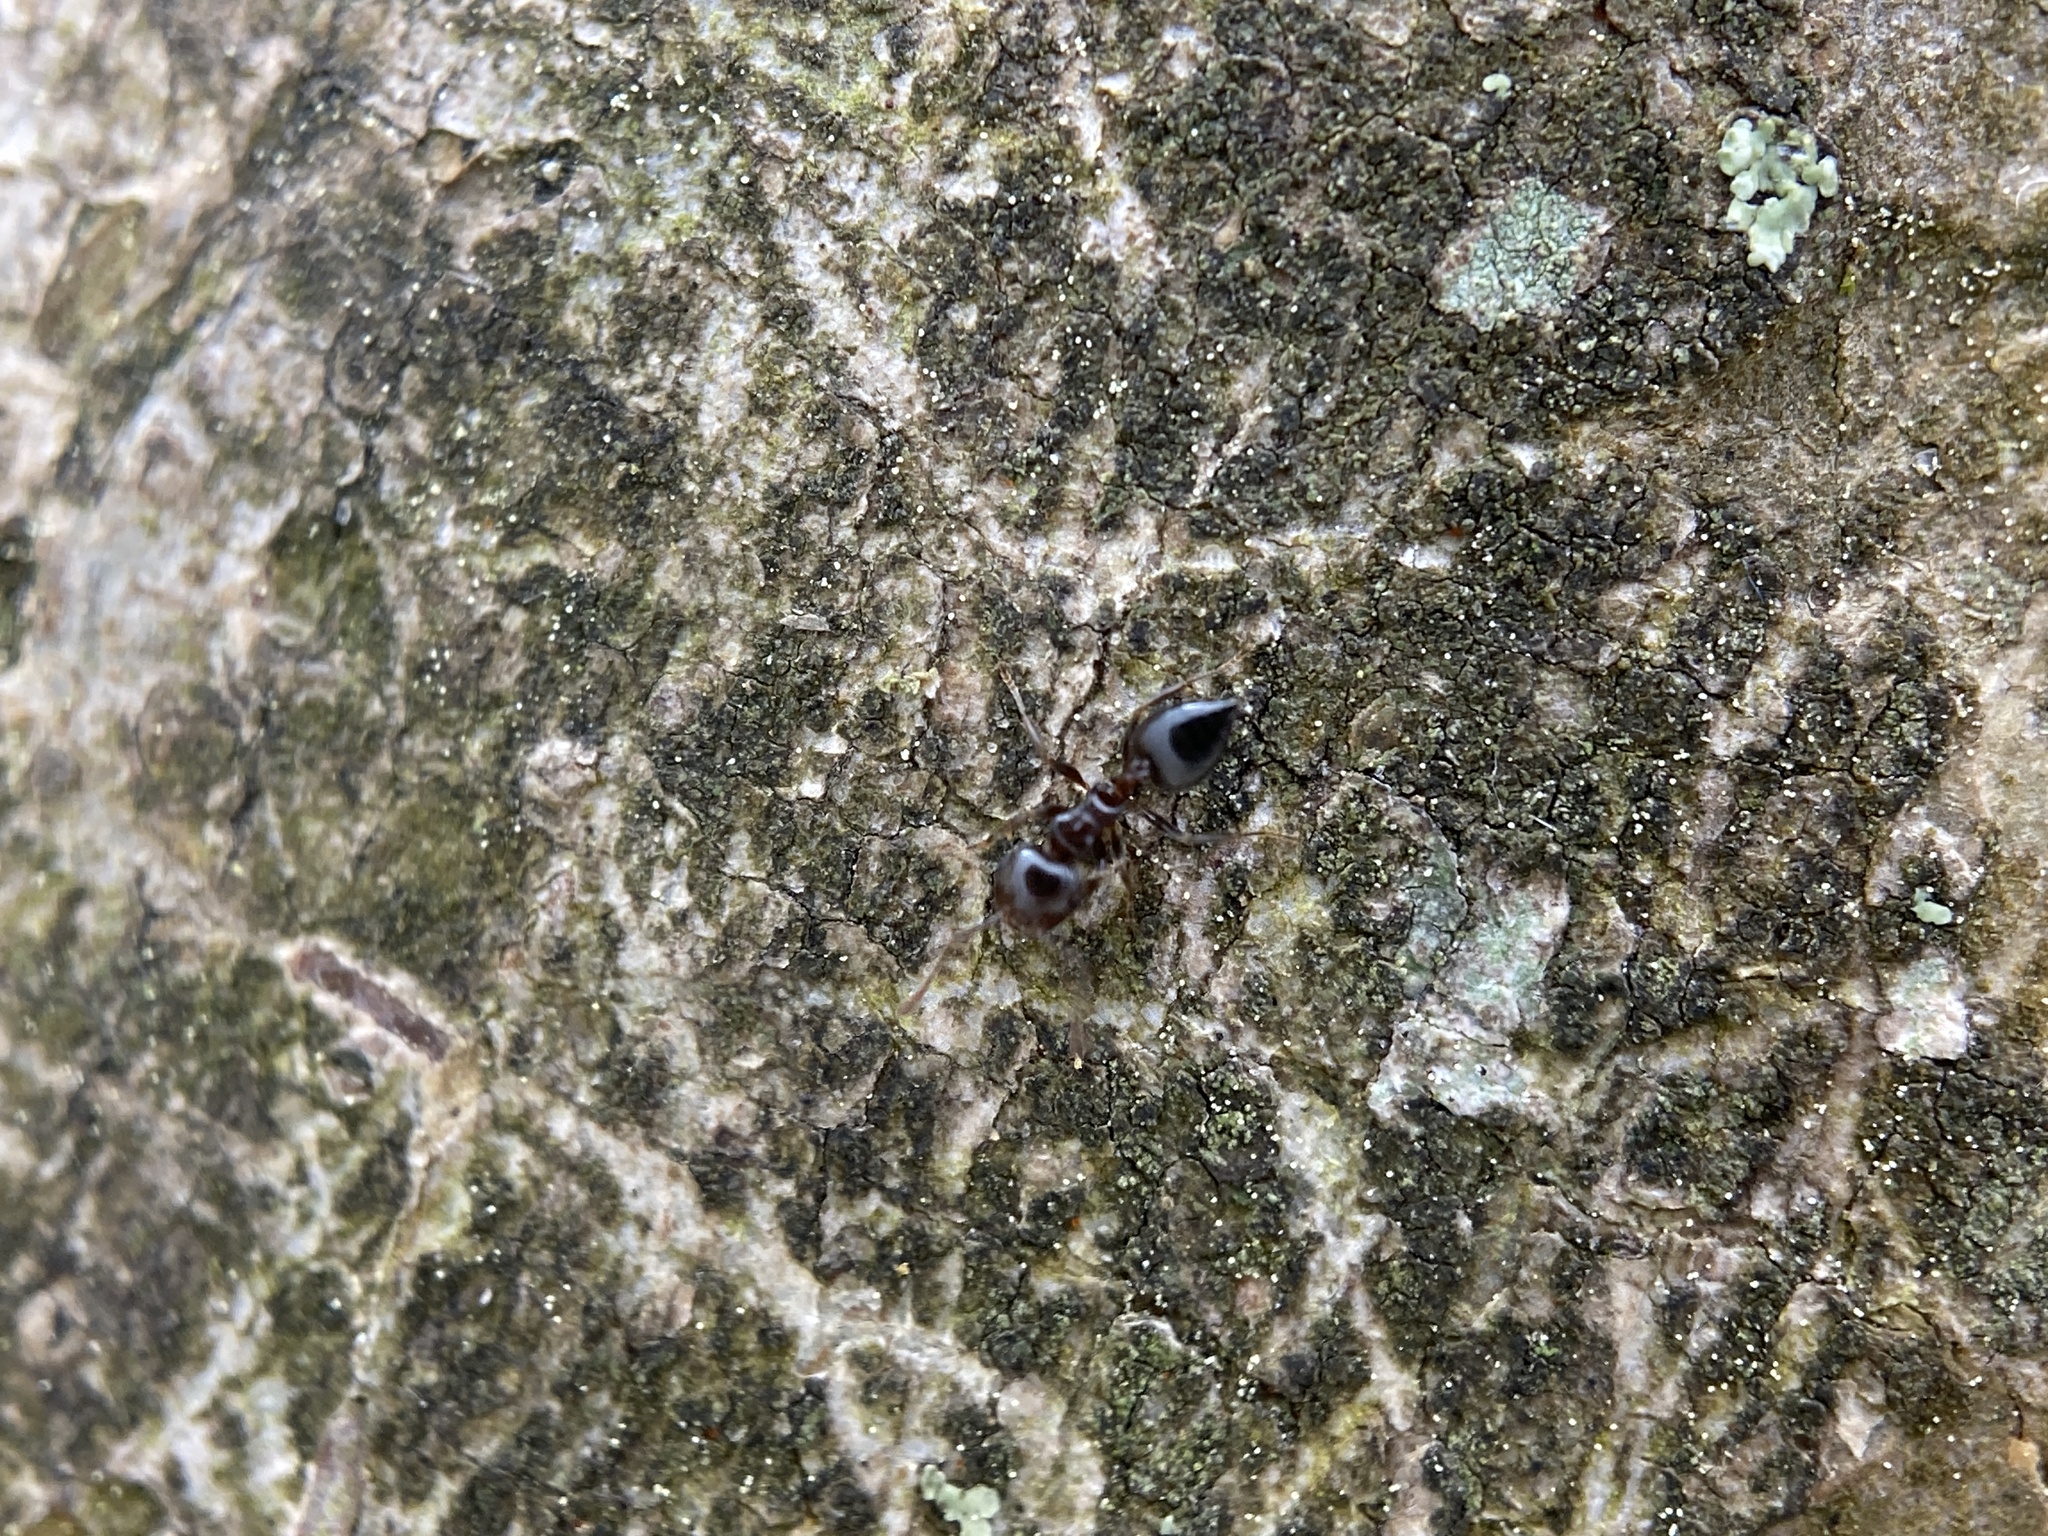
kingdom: Animalia
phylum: Arthropoda
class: Insecta
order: Hymenoptera
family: Formicidae
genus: Crematogaster
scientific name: Crematogaster ashmeadi
